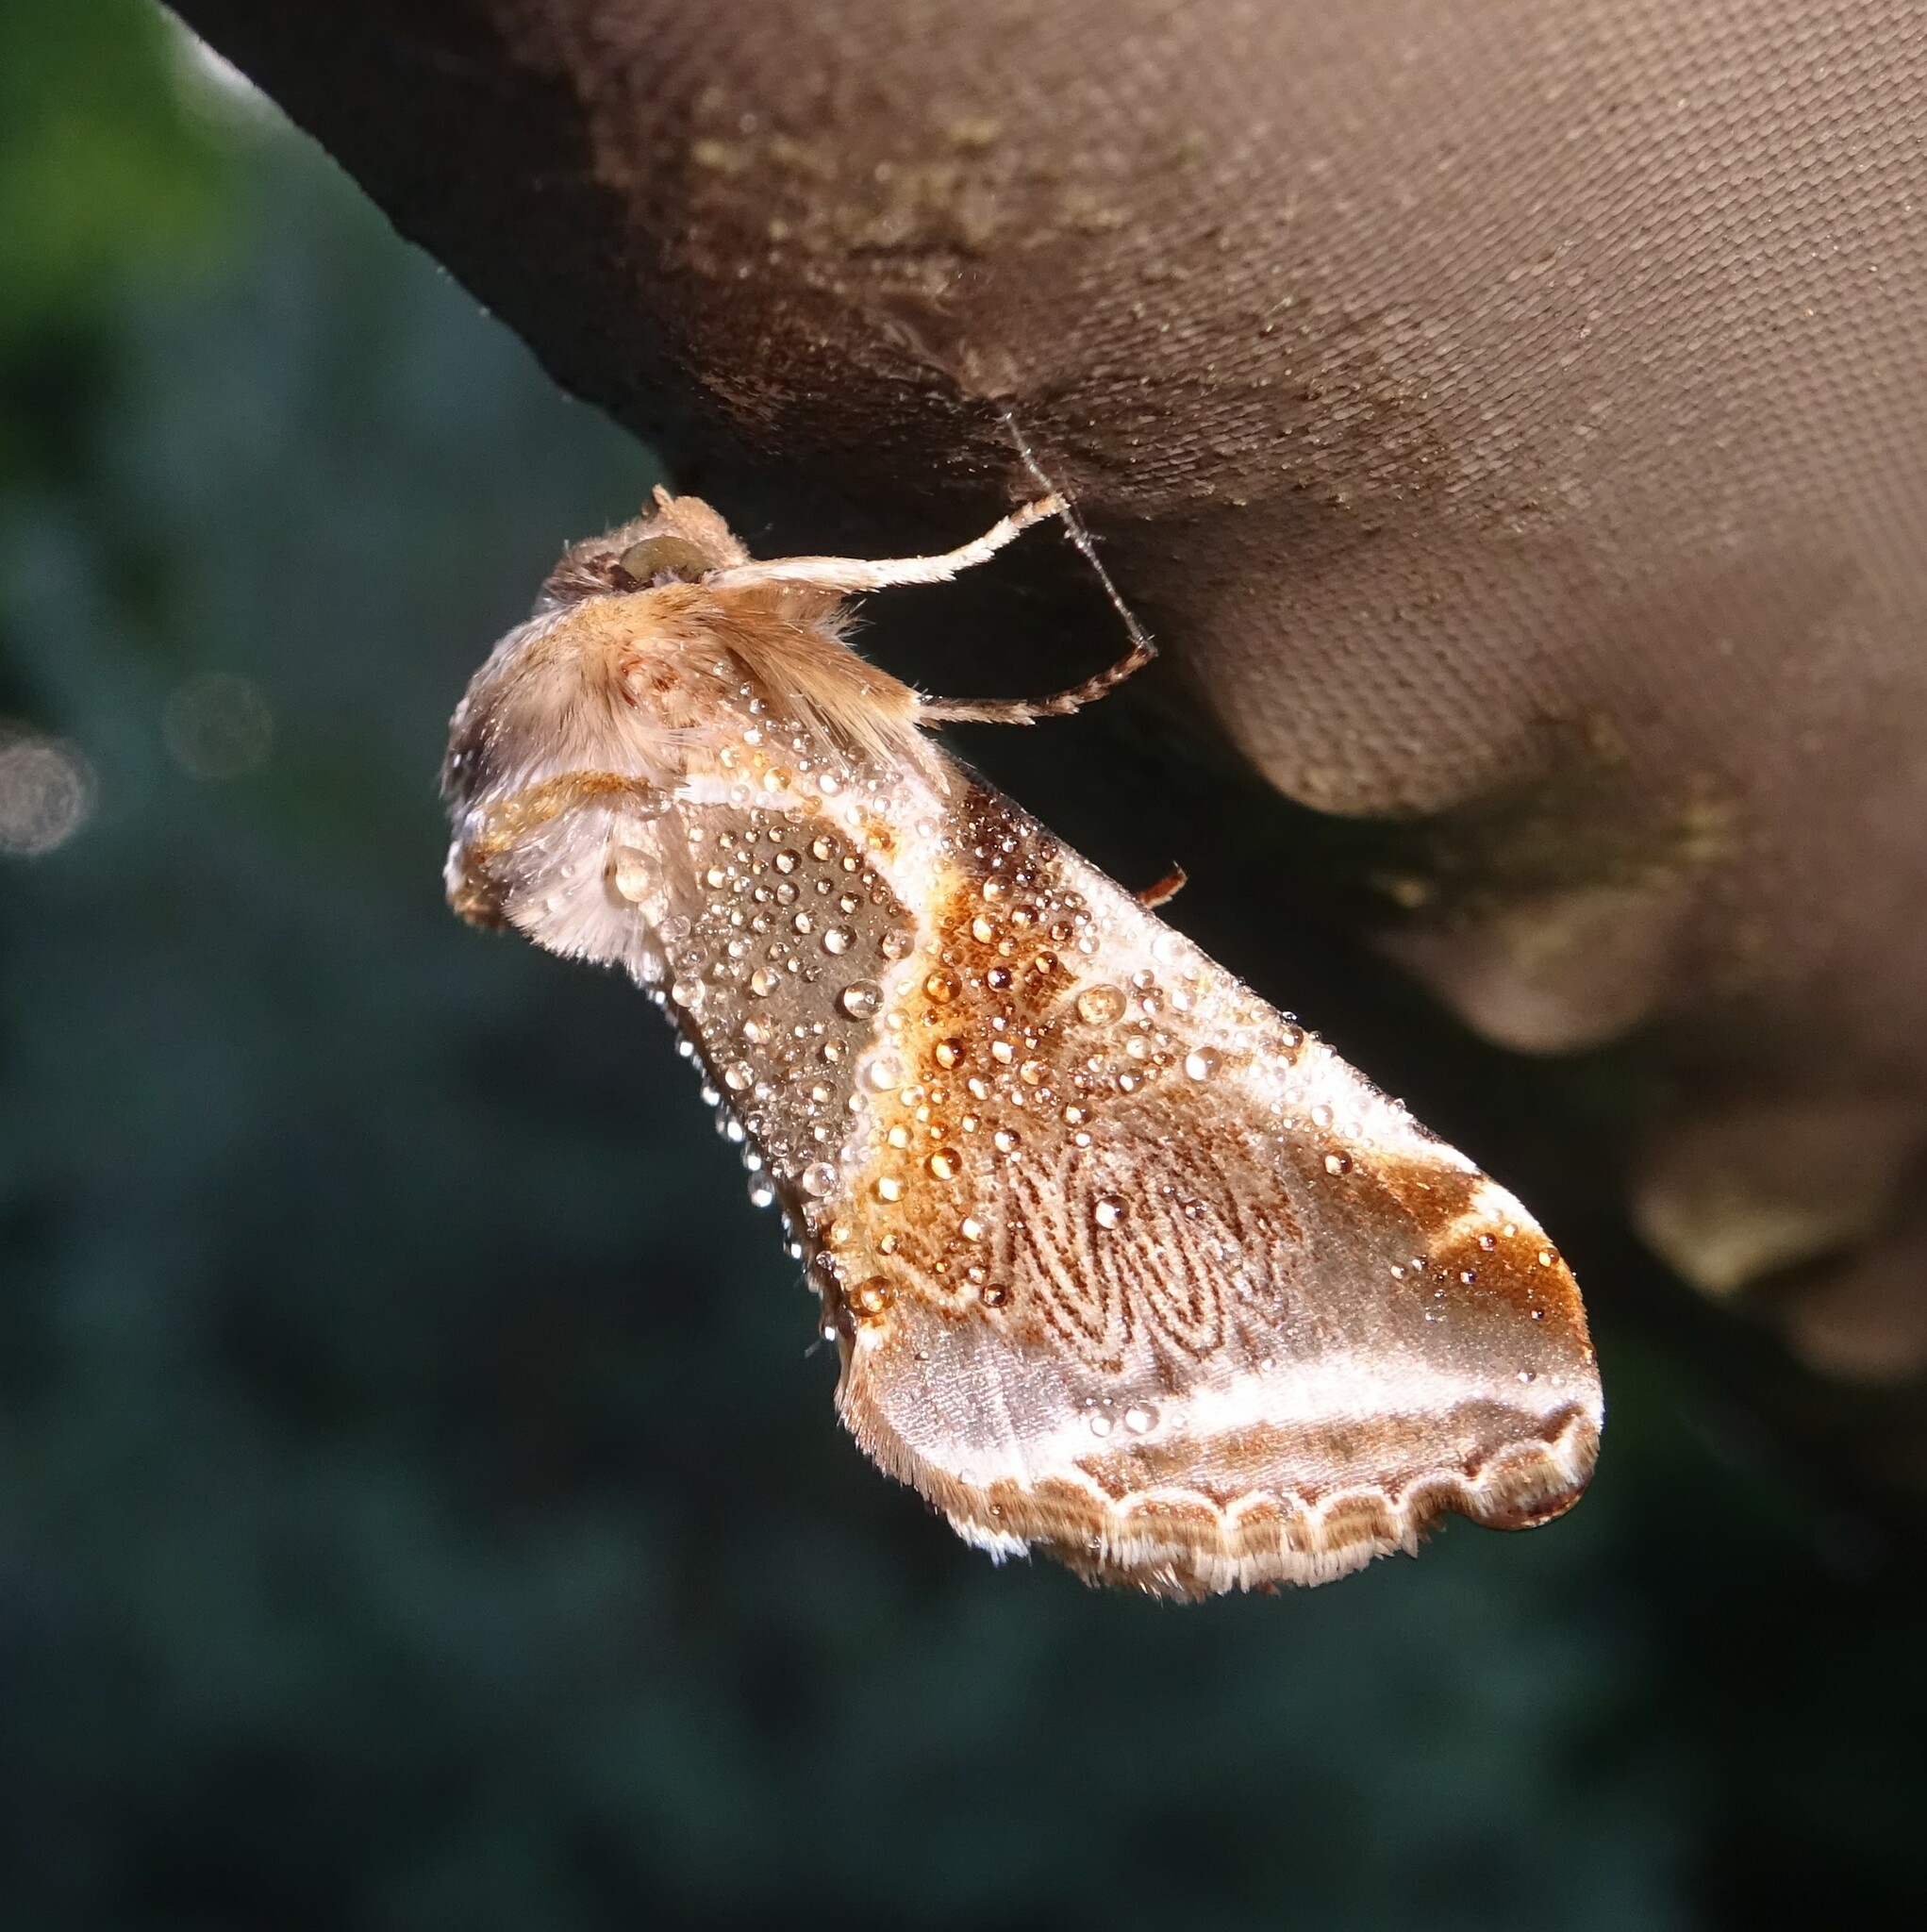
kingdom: Animalia
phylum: Arthropoda
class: Insecta
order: Lepidoptera
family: Drepanidae
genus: Habrosyne
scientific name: Habrosyne pyritoides
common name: Buff arches
